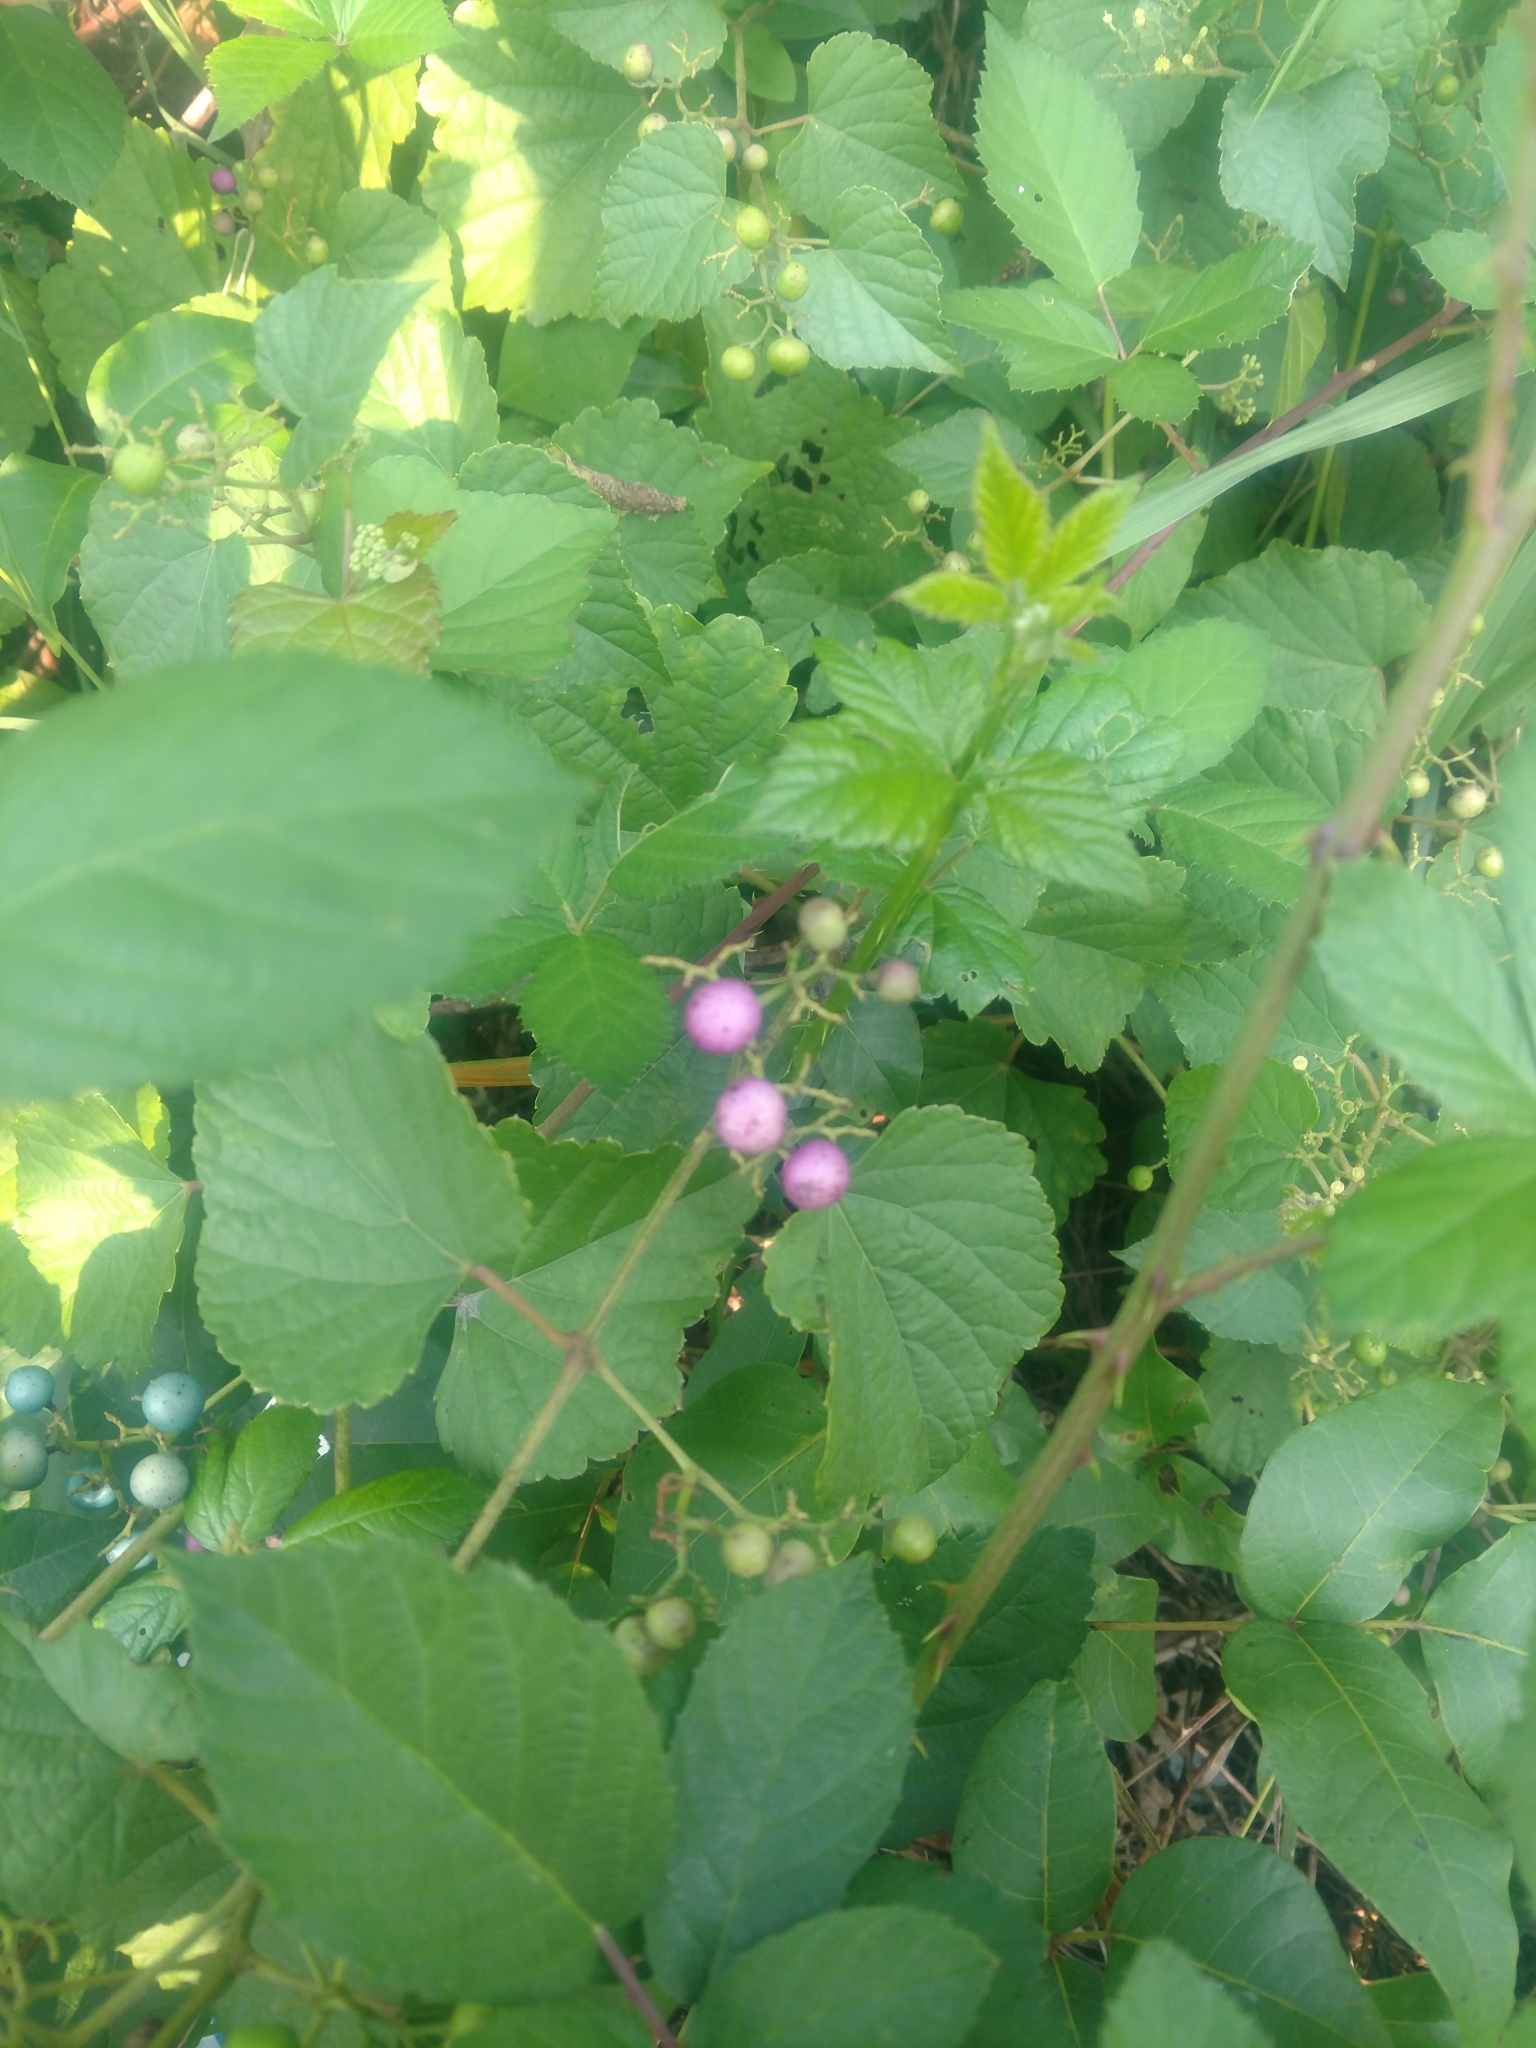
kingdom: Plantae
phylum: Tracheophyta
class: Magnoliopsida
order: Vitales
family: Vitaceae
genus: Ampelopsis
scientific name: Ampelopsis glandulosa
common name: Amur peppervine
